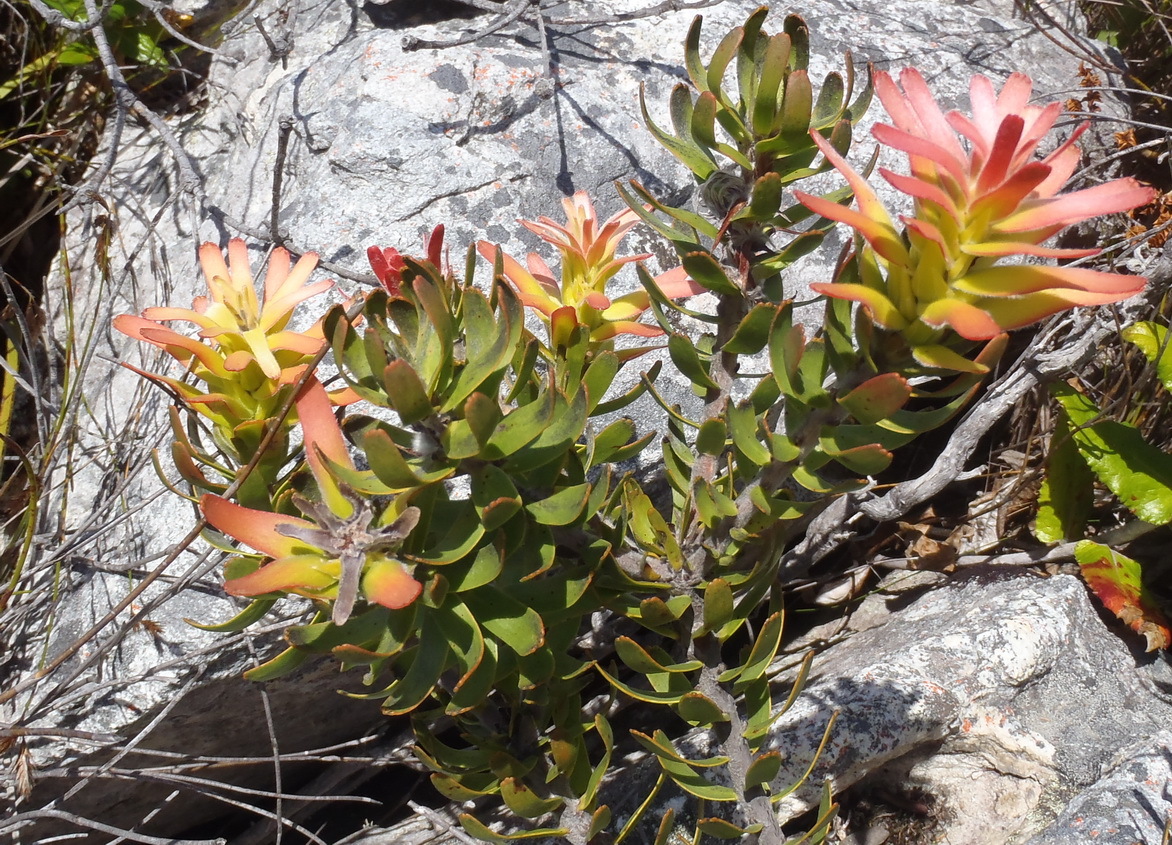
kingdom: Plantae
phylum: Tracheophyta
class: Magnoliopsida
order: Proteales
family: Proteaceae
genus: Mimetes
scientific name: Mimetes cucullatus
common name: Common pagoda
